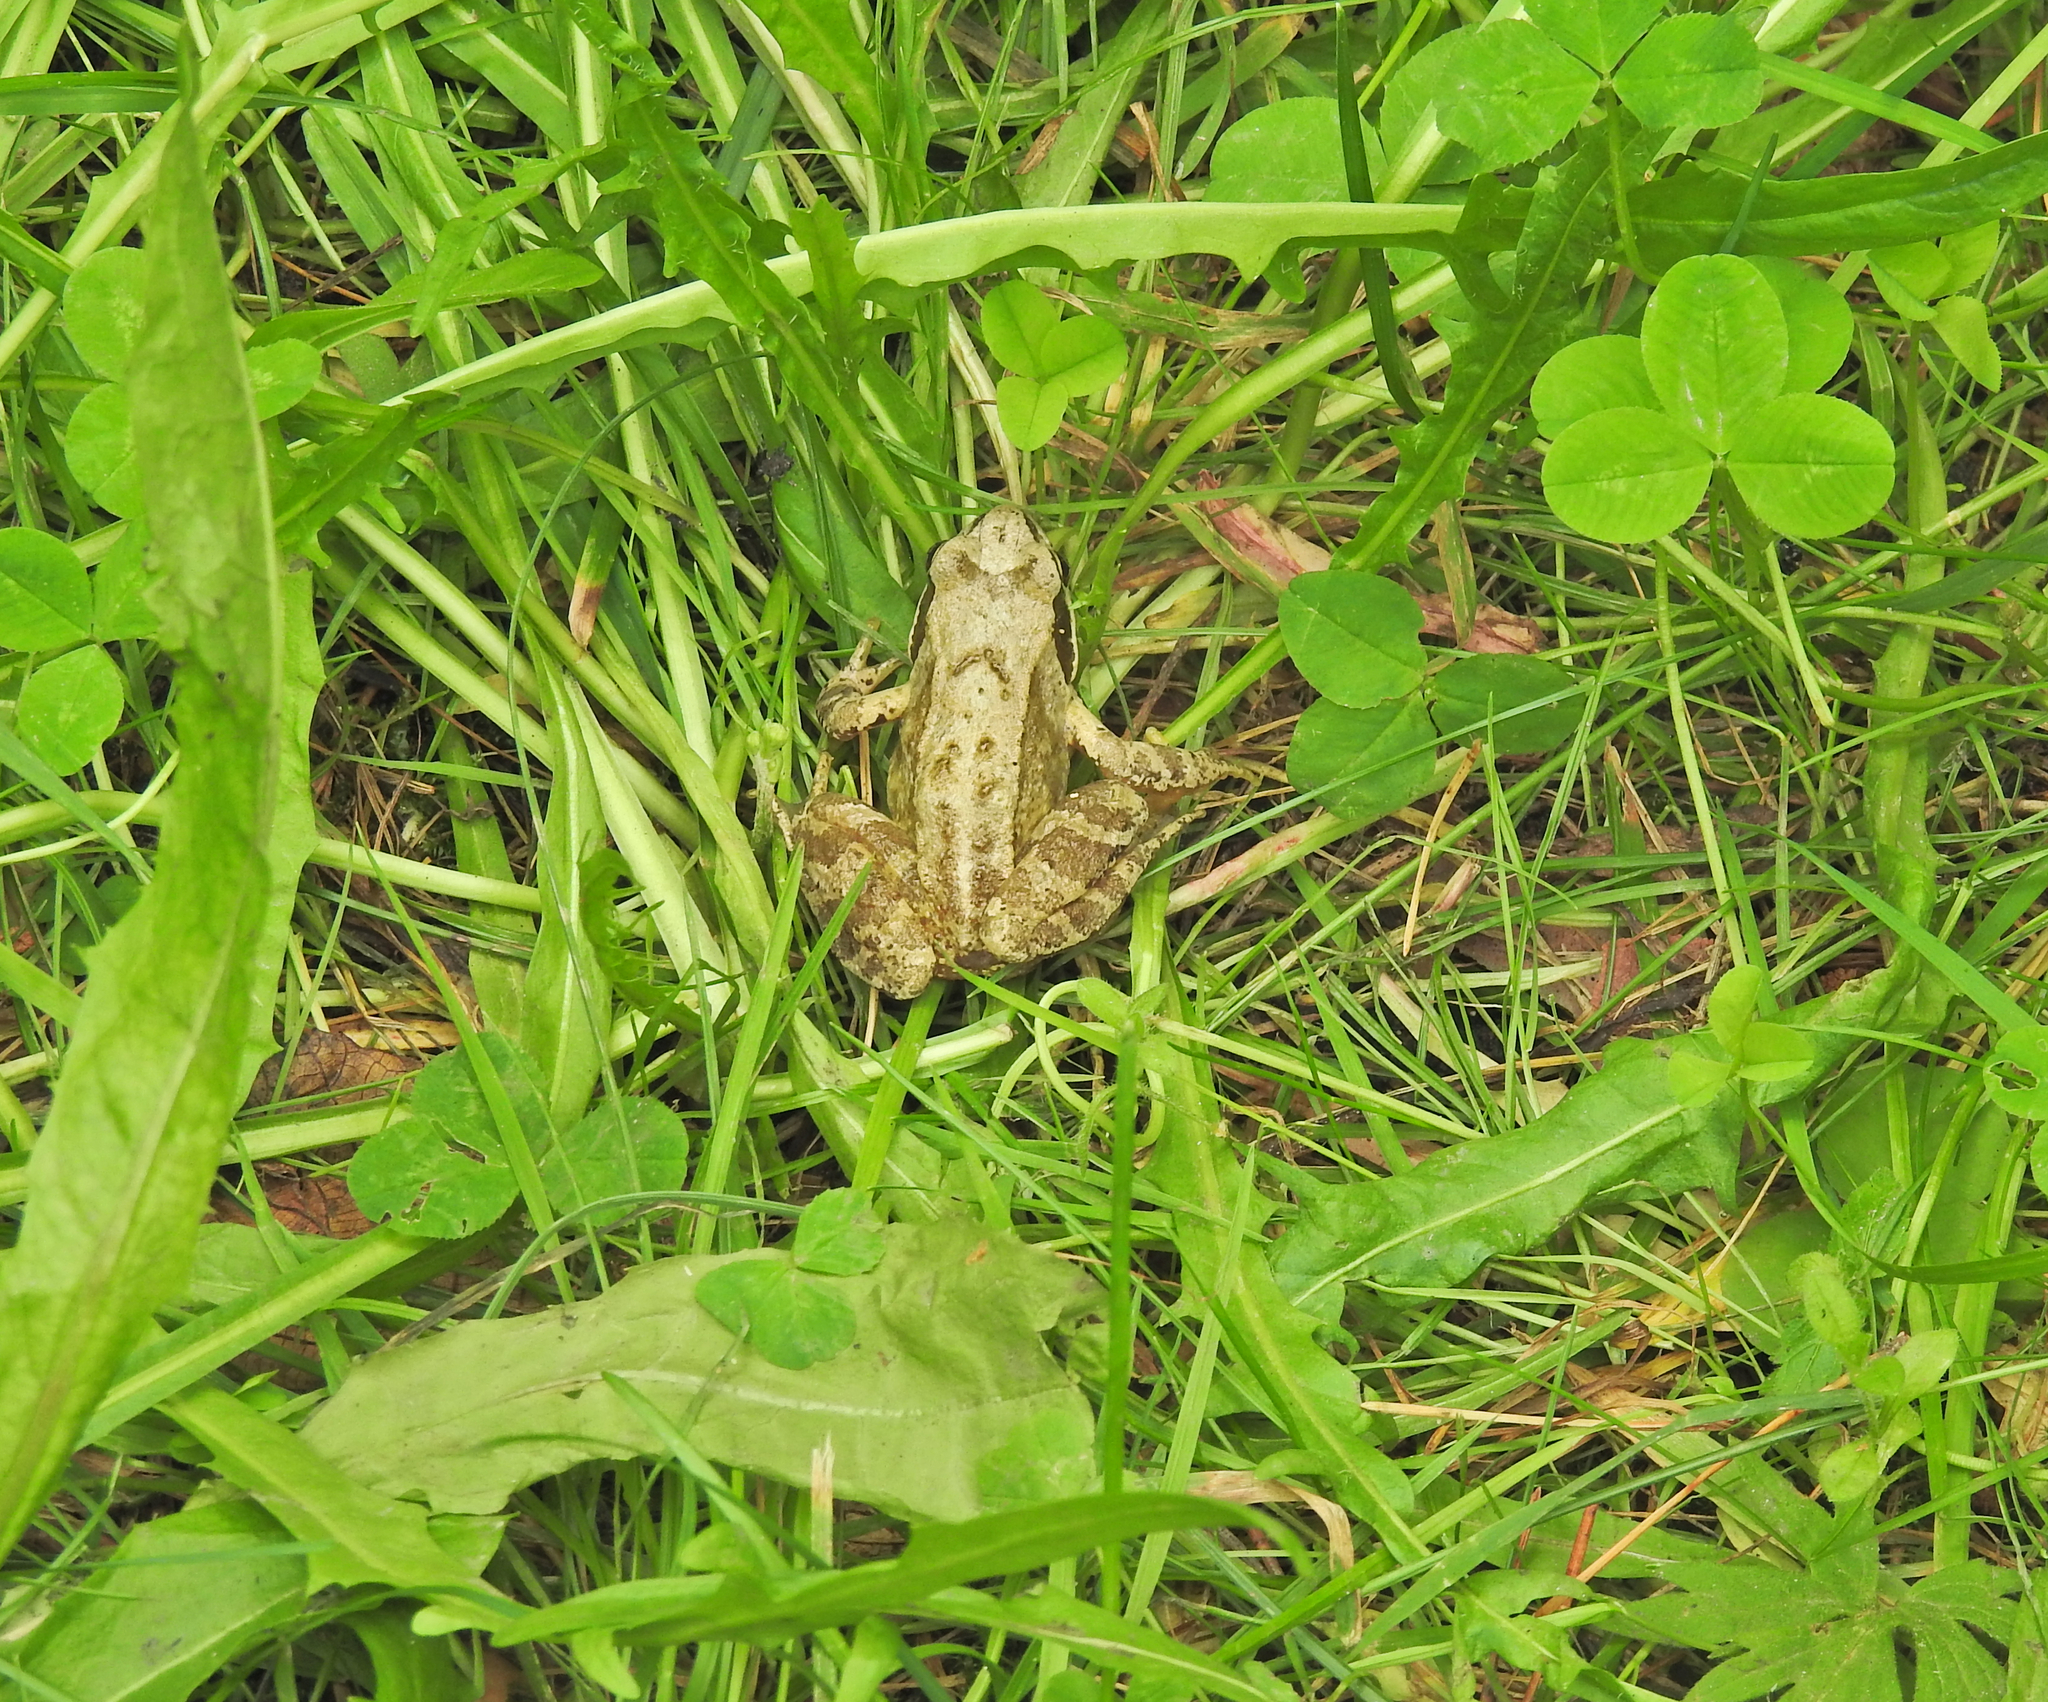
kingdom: Animalia
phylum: Chordata
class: Amphibia
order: Anura
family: Ranidae
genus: Rana
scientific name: Rana temporaria
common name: Common frog
